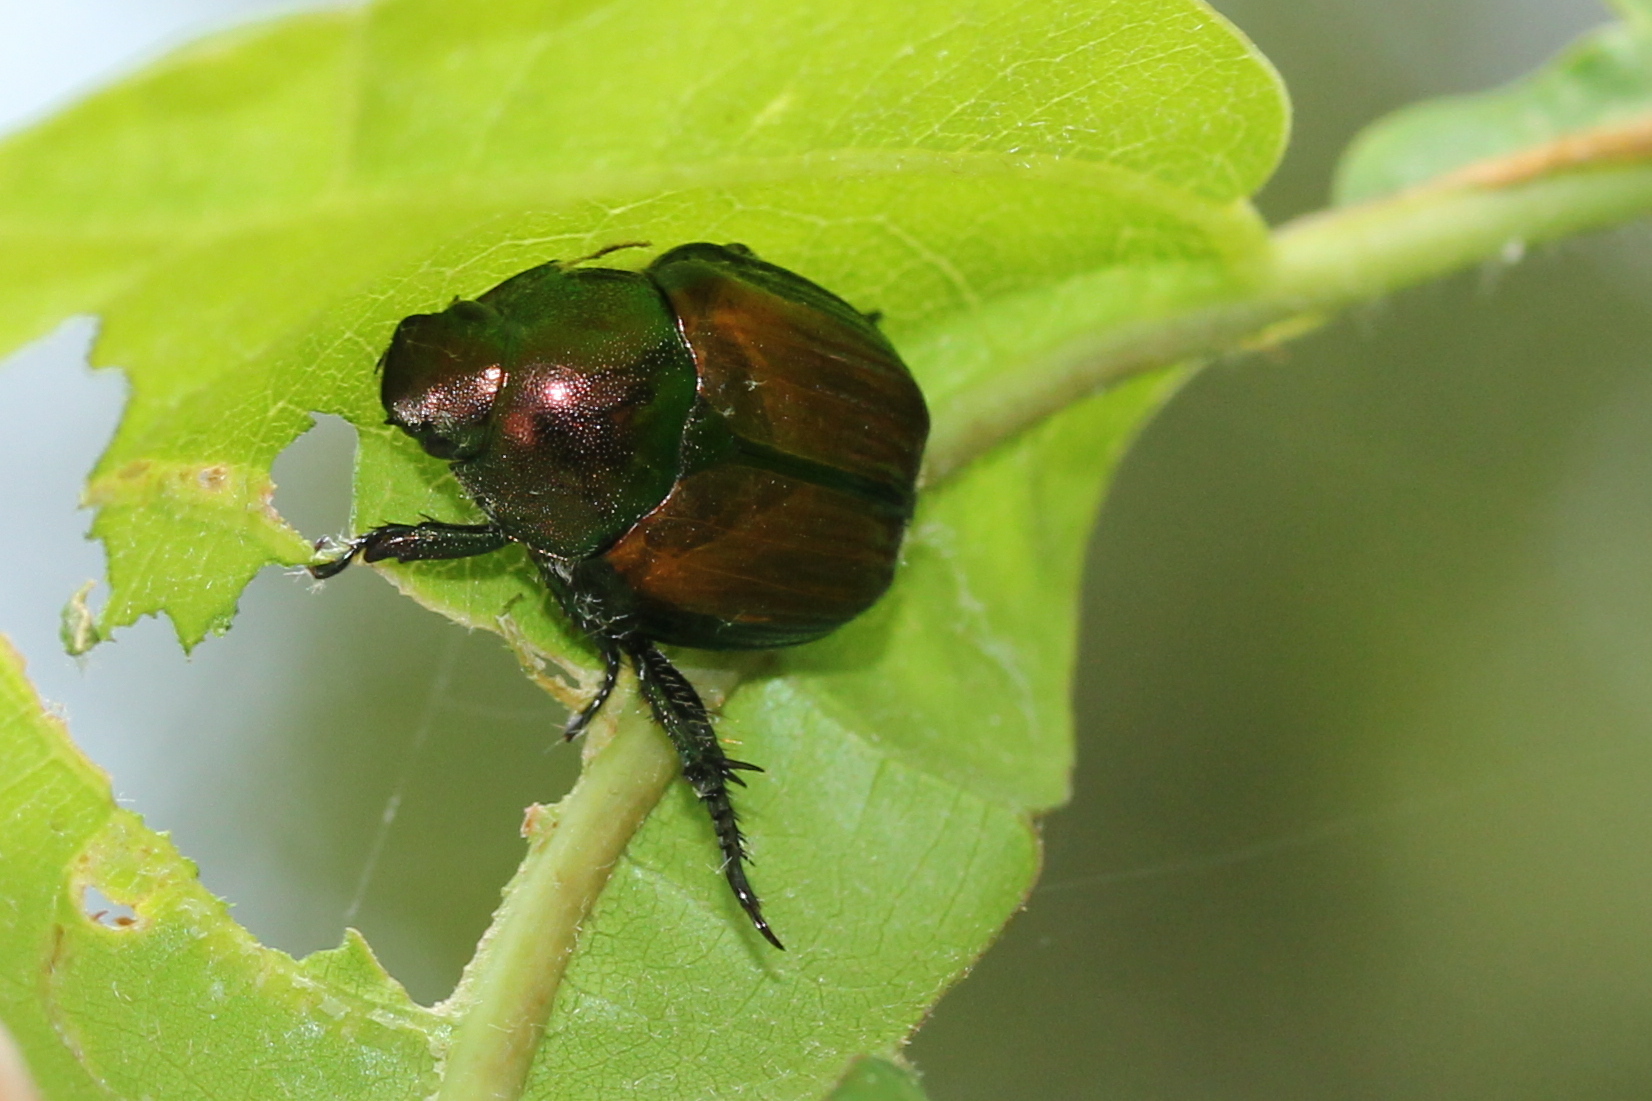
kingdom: Animalia
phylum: Arthropoda
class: Insecta
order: Coleoptera
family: Scarabaeidae
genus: Popillia
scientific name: Popillia japonica
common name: Japanese beetle
